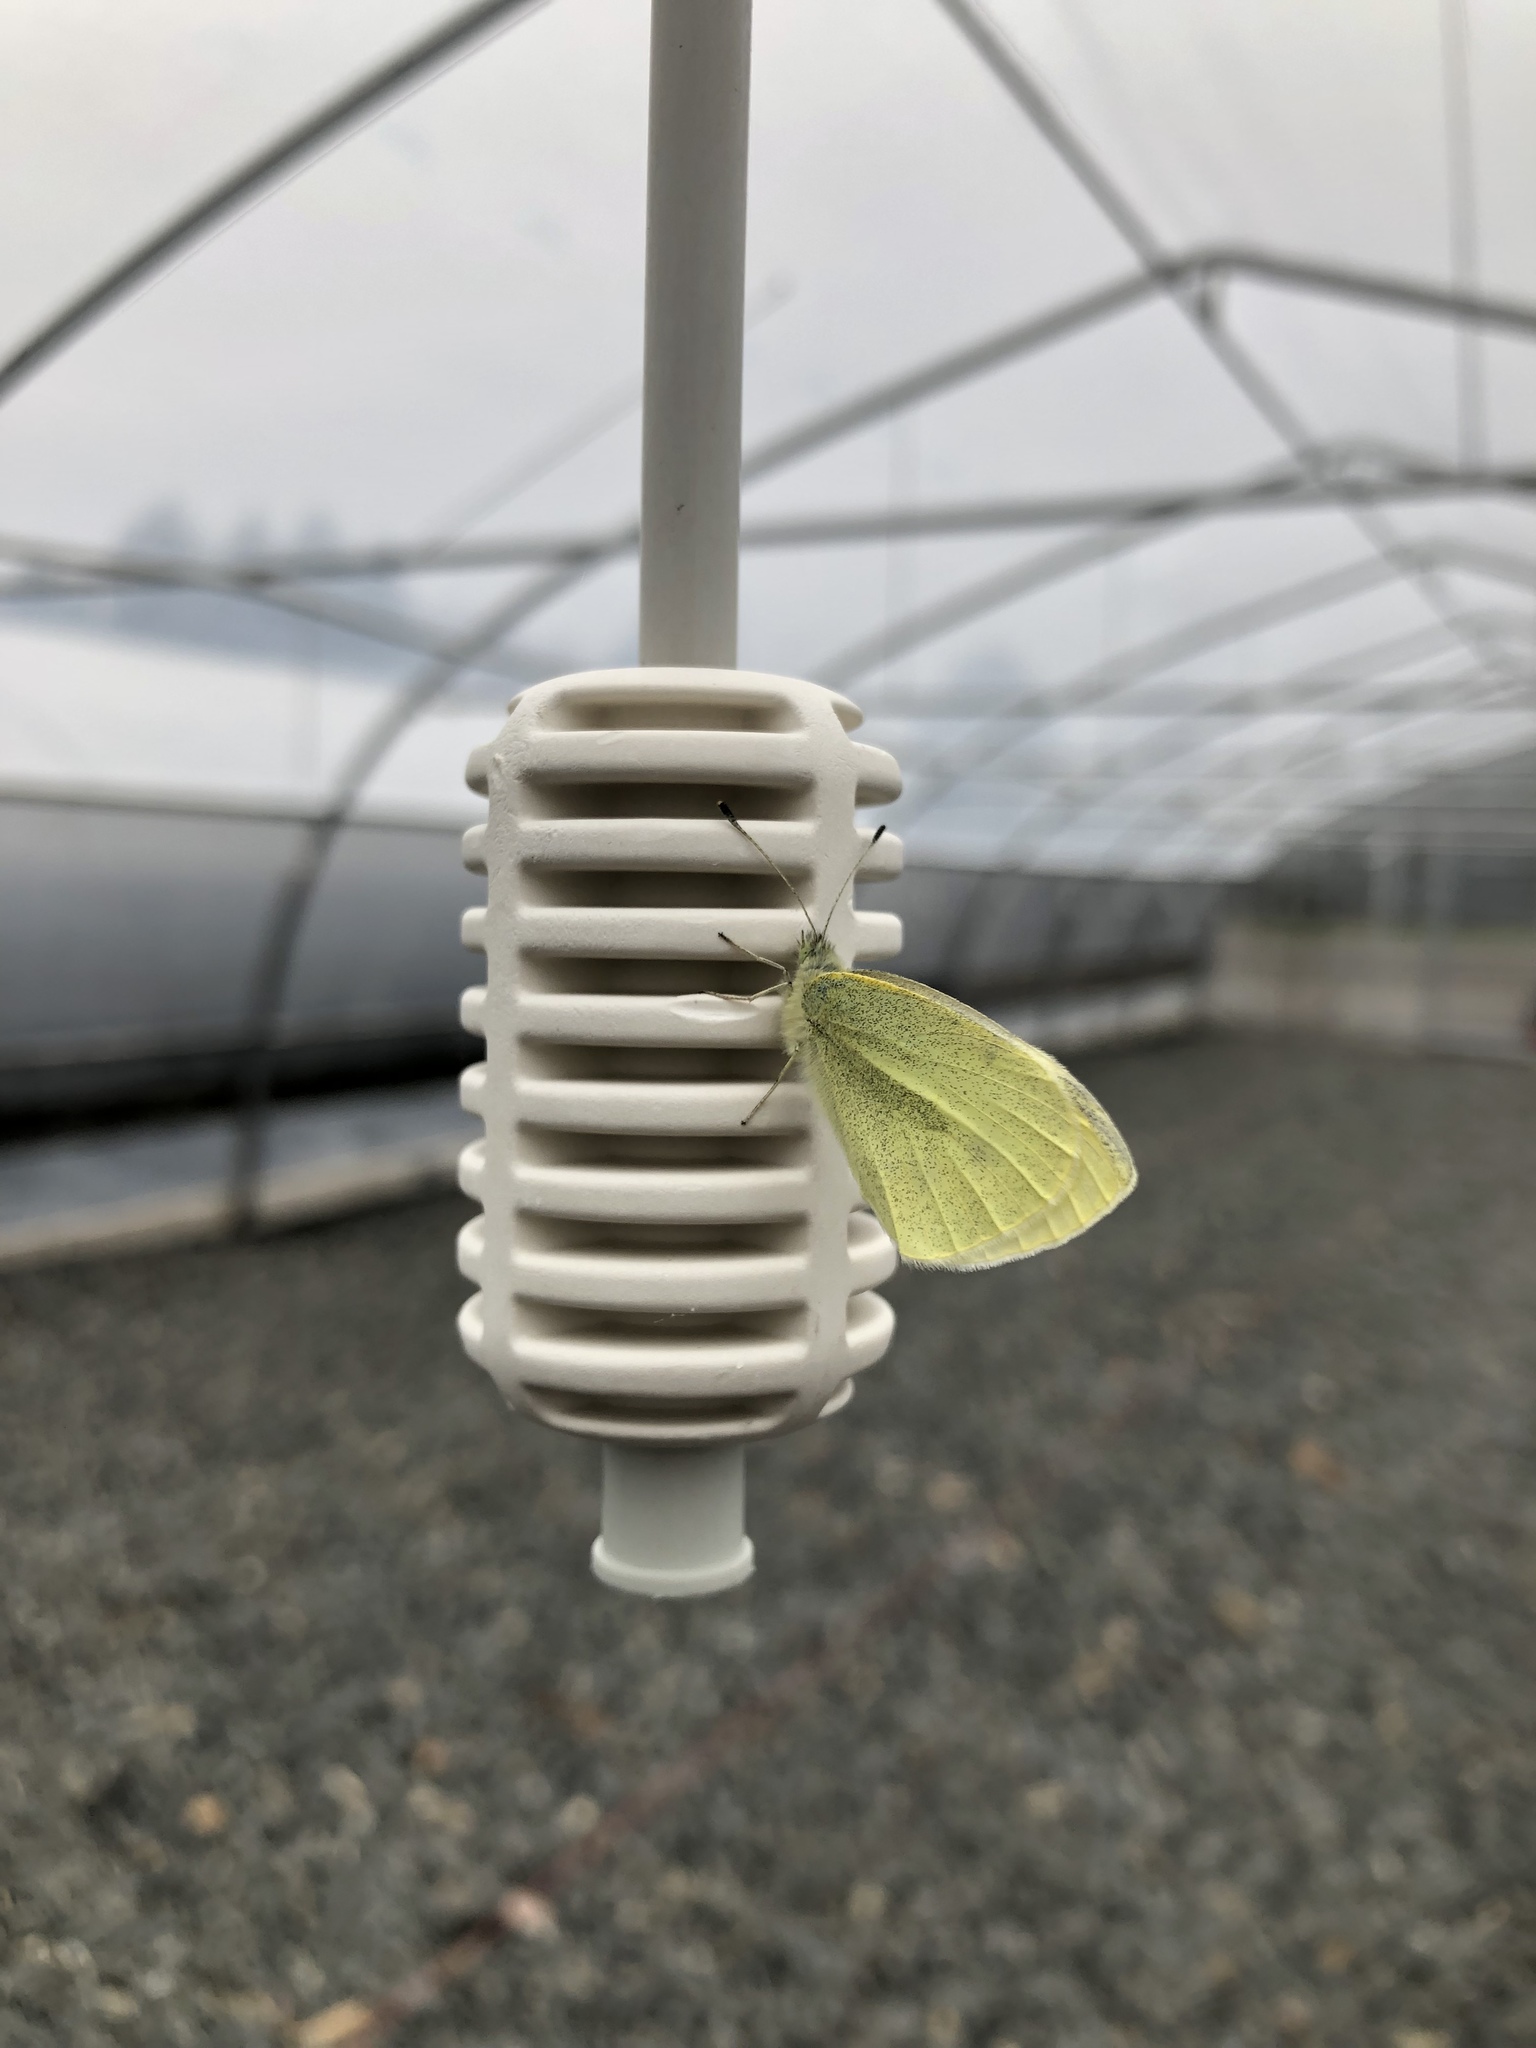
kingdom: Animalia
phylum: Arthropoda
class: Insecta
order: Lepidoptera
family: Pieridae
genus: Pieris
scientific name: Pieris rapae
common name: Small white
